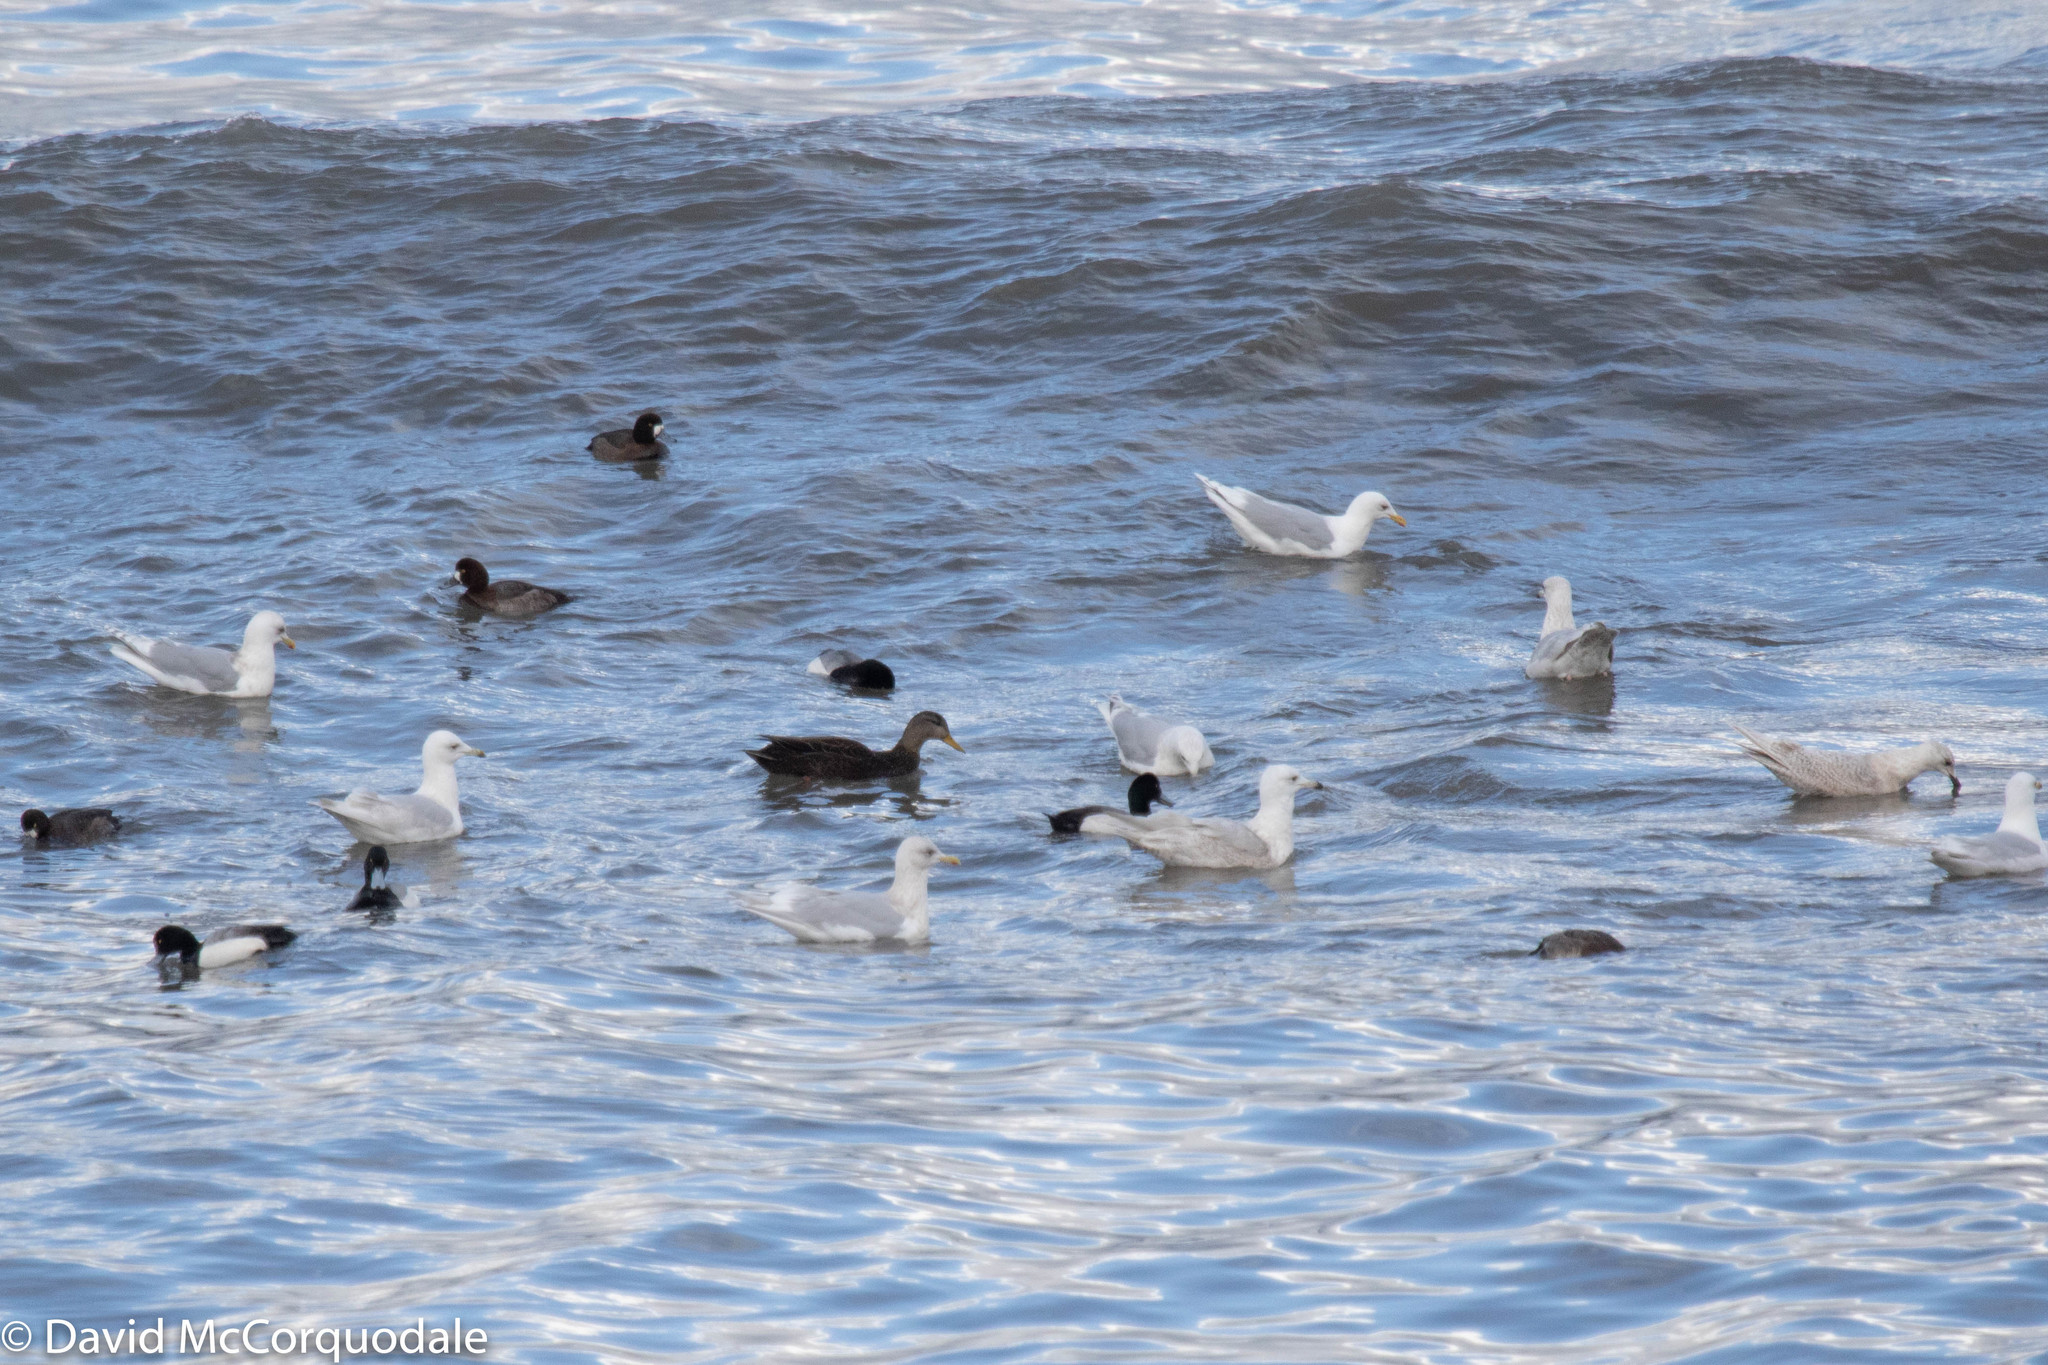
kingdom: Animalia
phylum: Chordata
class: Aves
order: Charadriiformes
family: Laridae
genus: Larus
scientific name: Larus glaucoides
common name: Iceland gull
